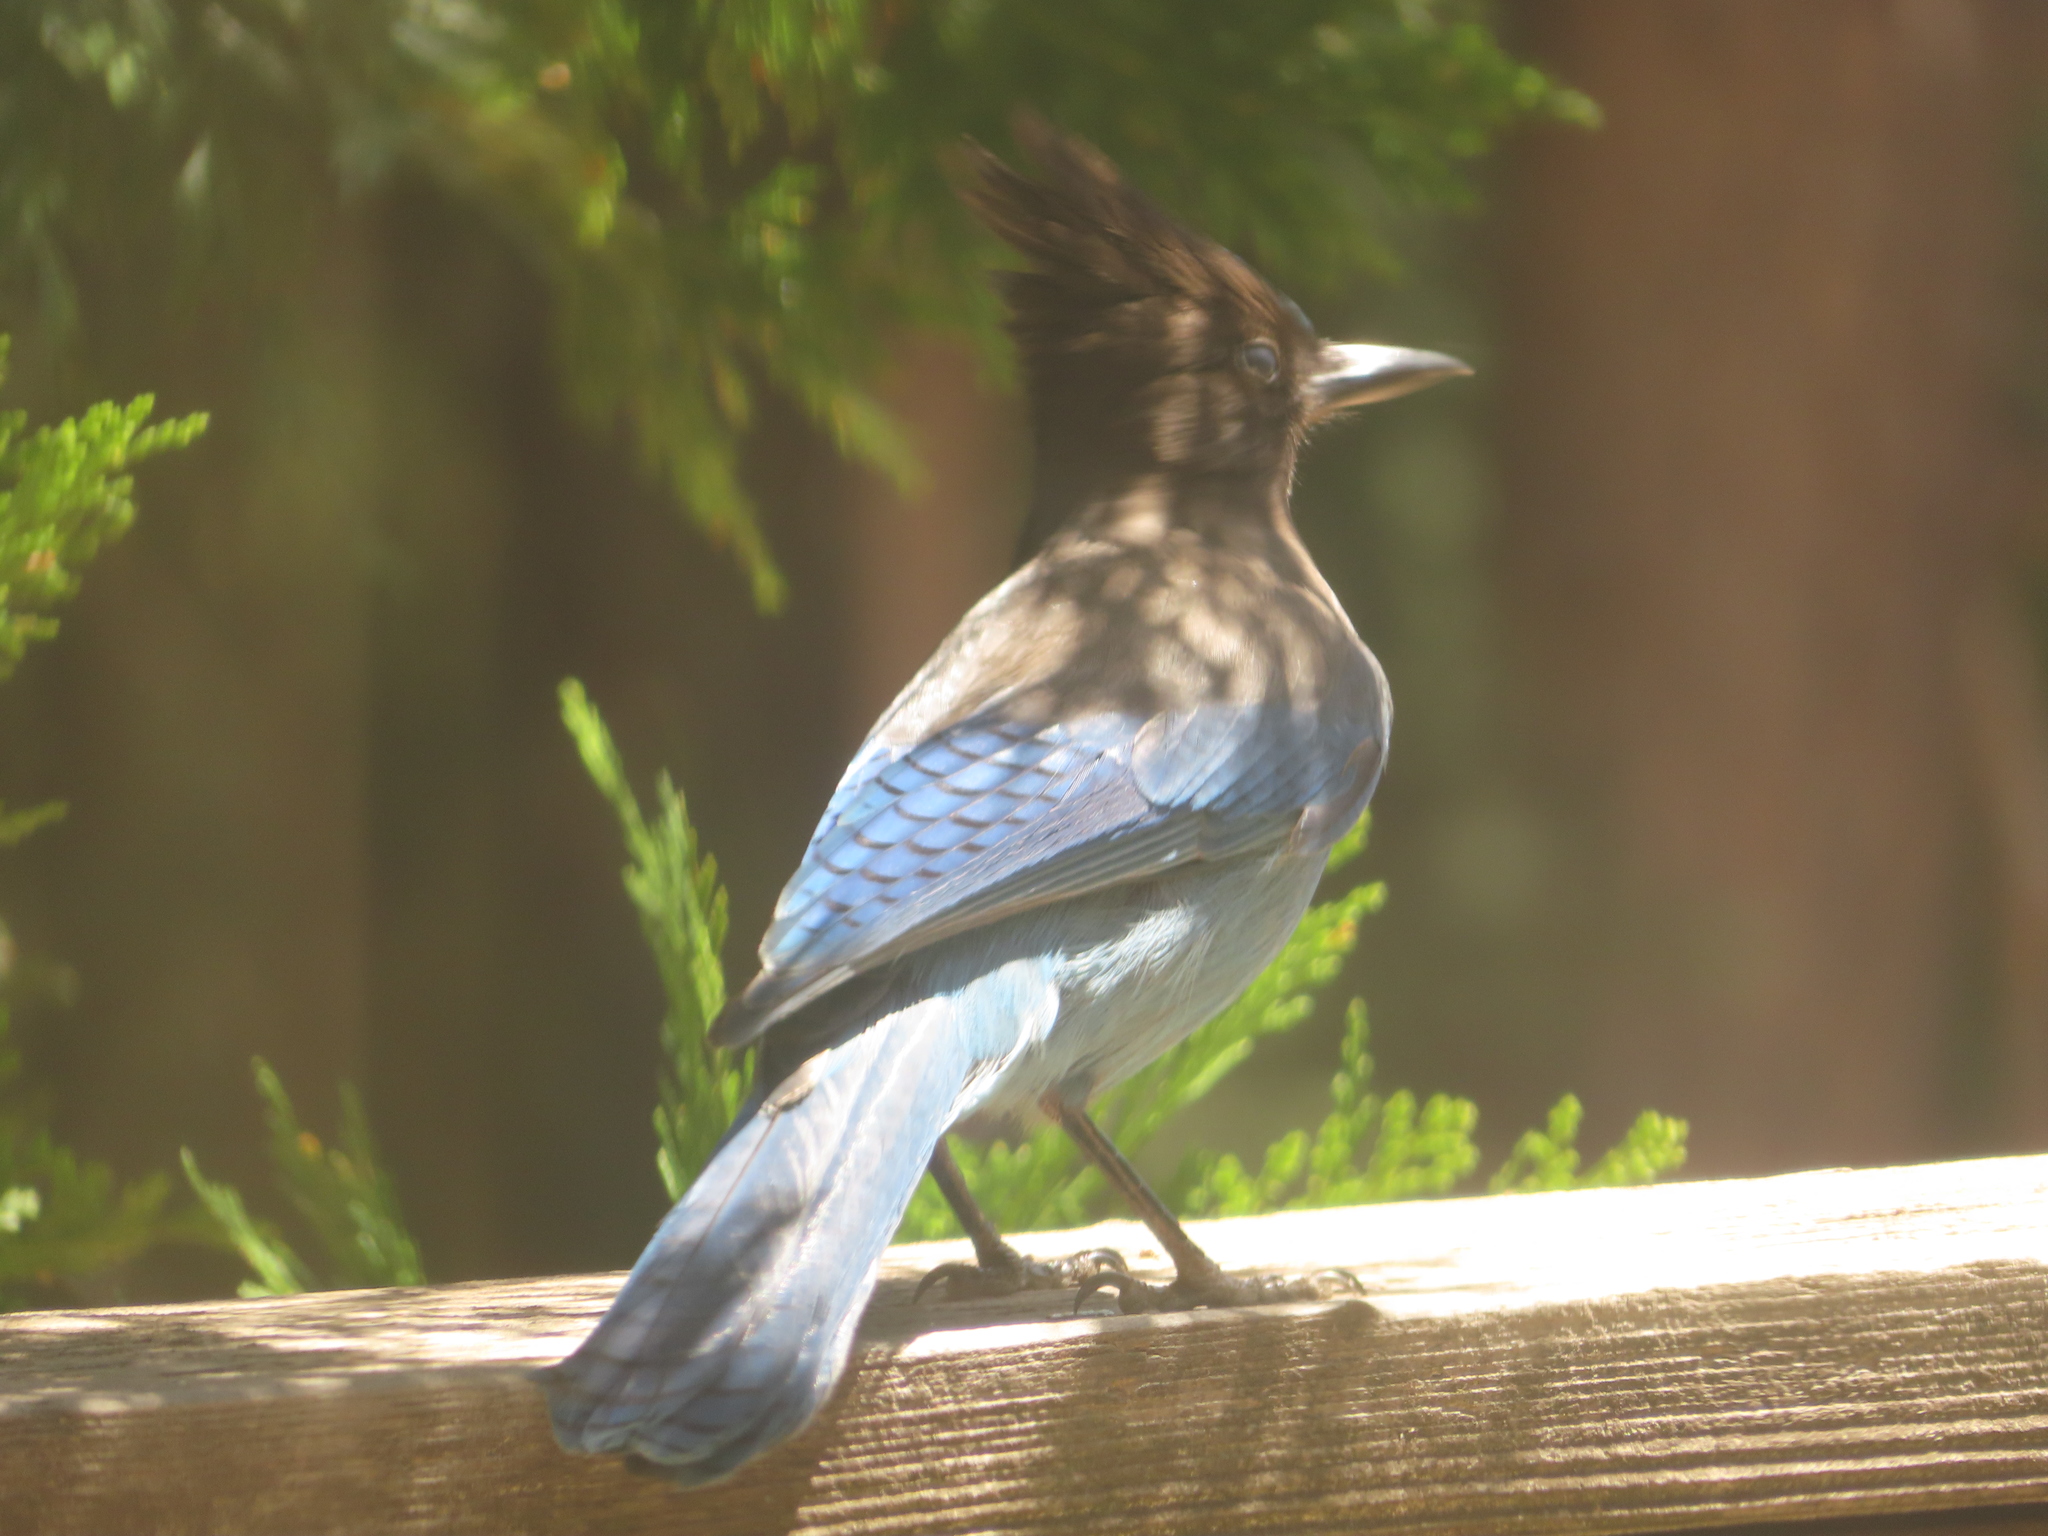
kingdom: Animalia
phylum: Chordata
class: Aves
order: Passeriformes
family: Corvidae
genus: Cyanocitta
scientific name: Cyanocitta stelleri
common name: Steller's jay
